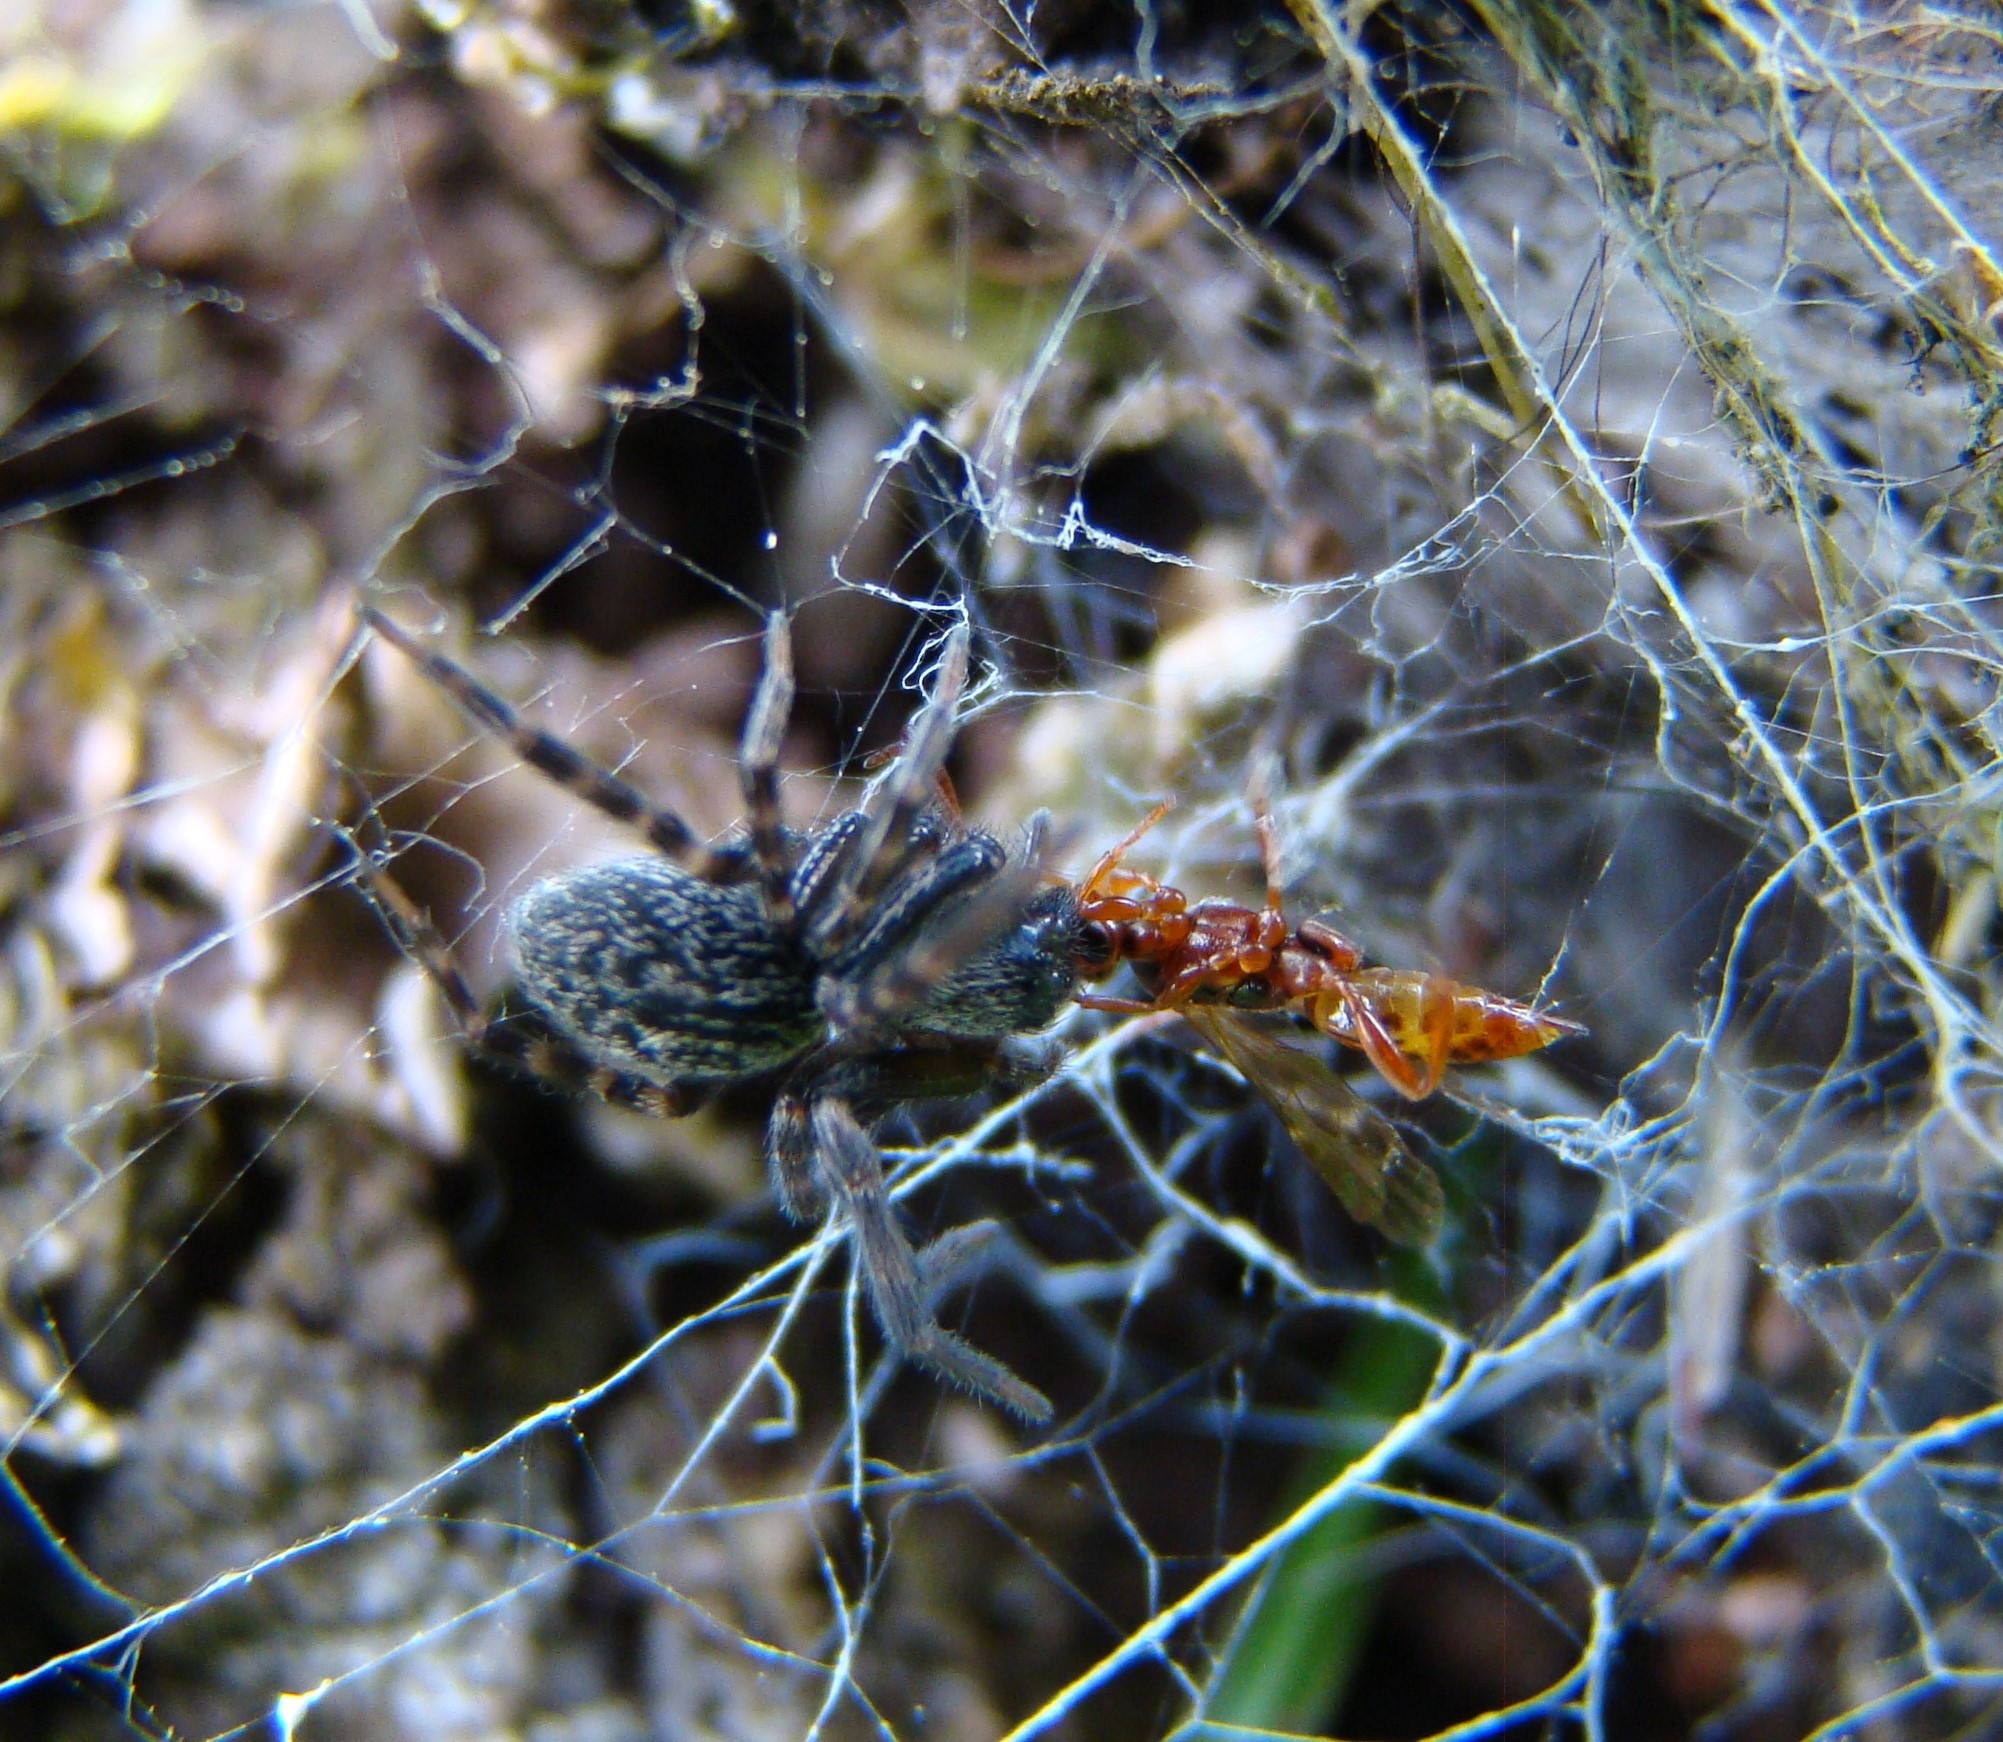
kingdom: Animalia
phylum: Arthropoda
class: Arachnida
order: Araneae
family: Desidae
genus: Badumna
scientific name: Badumna longinqua
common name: Gray house spider
